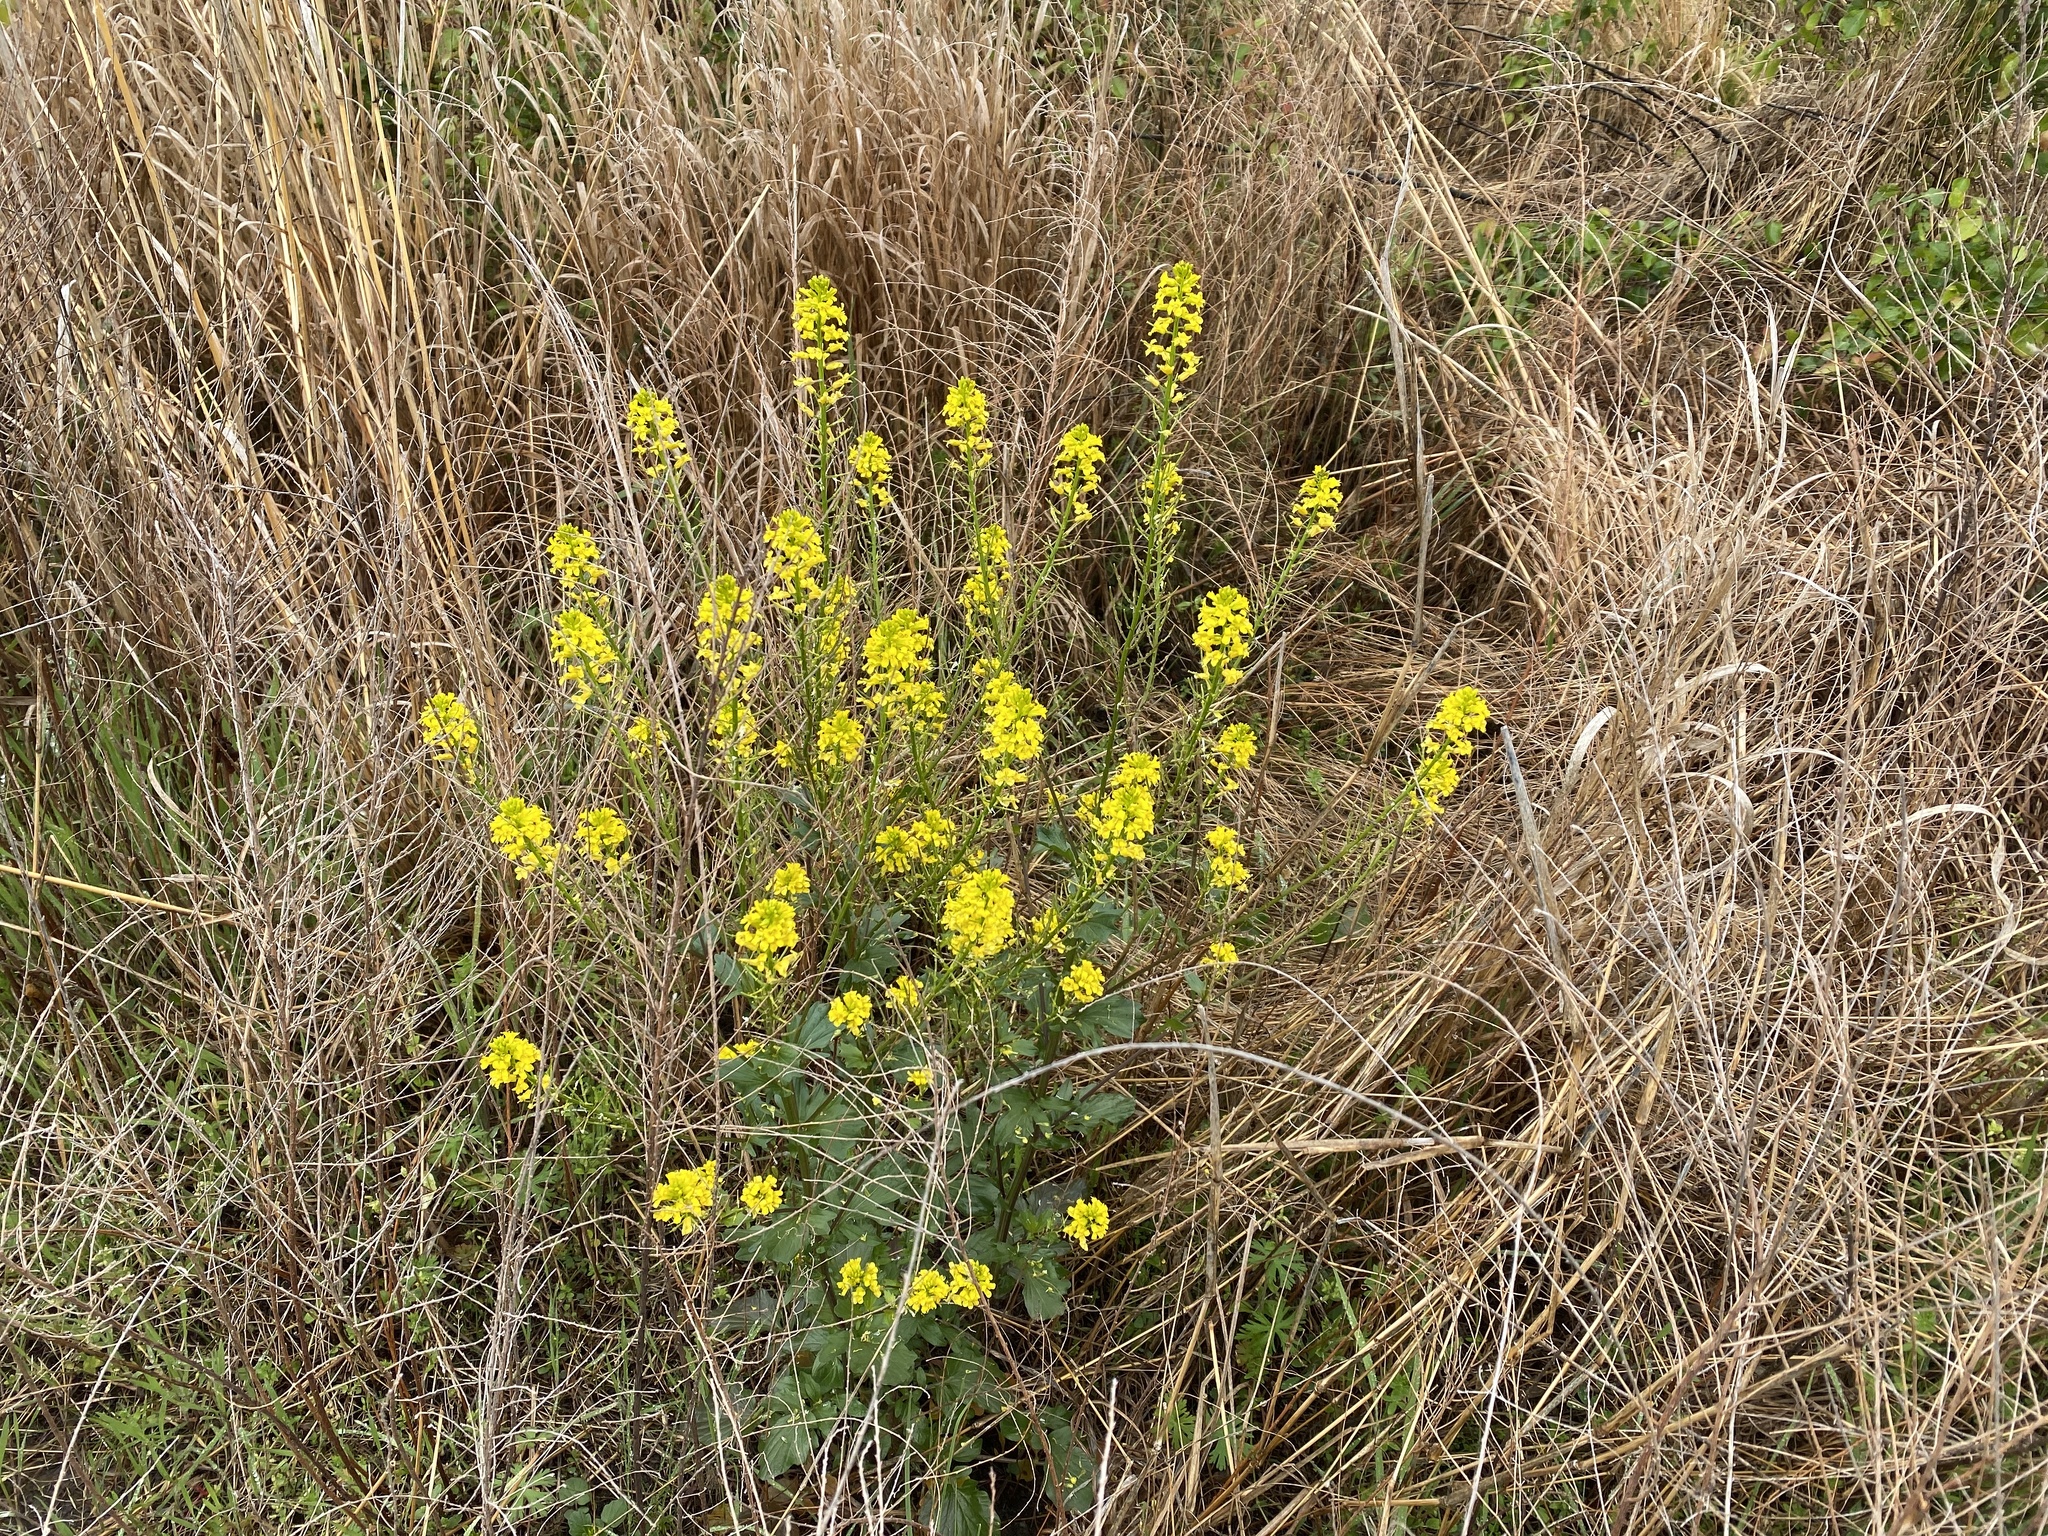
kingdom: Plantae
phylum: Tracheophyta
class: Magnoliopsida
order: Brassicales
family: Brassicaceae
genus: Barbarea
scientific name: Barbarea vulgaris
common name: Cressy-greens
